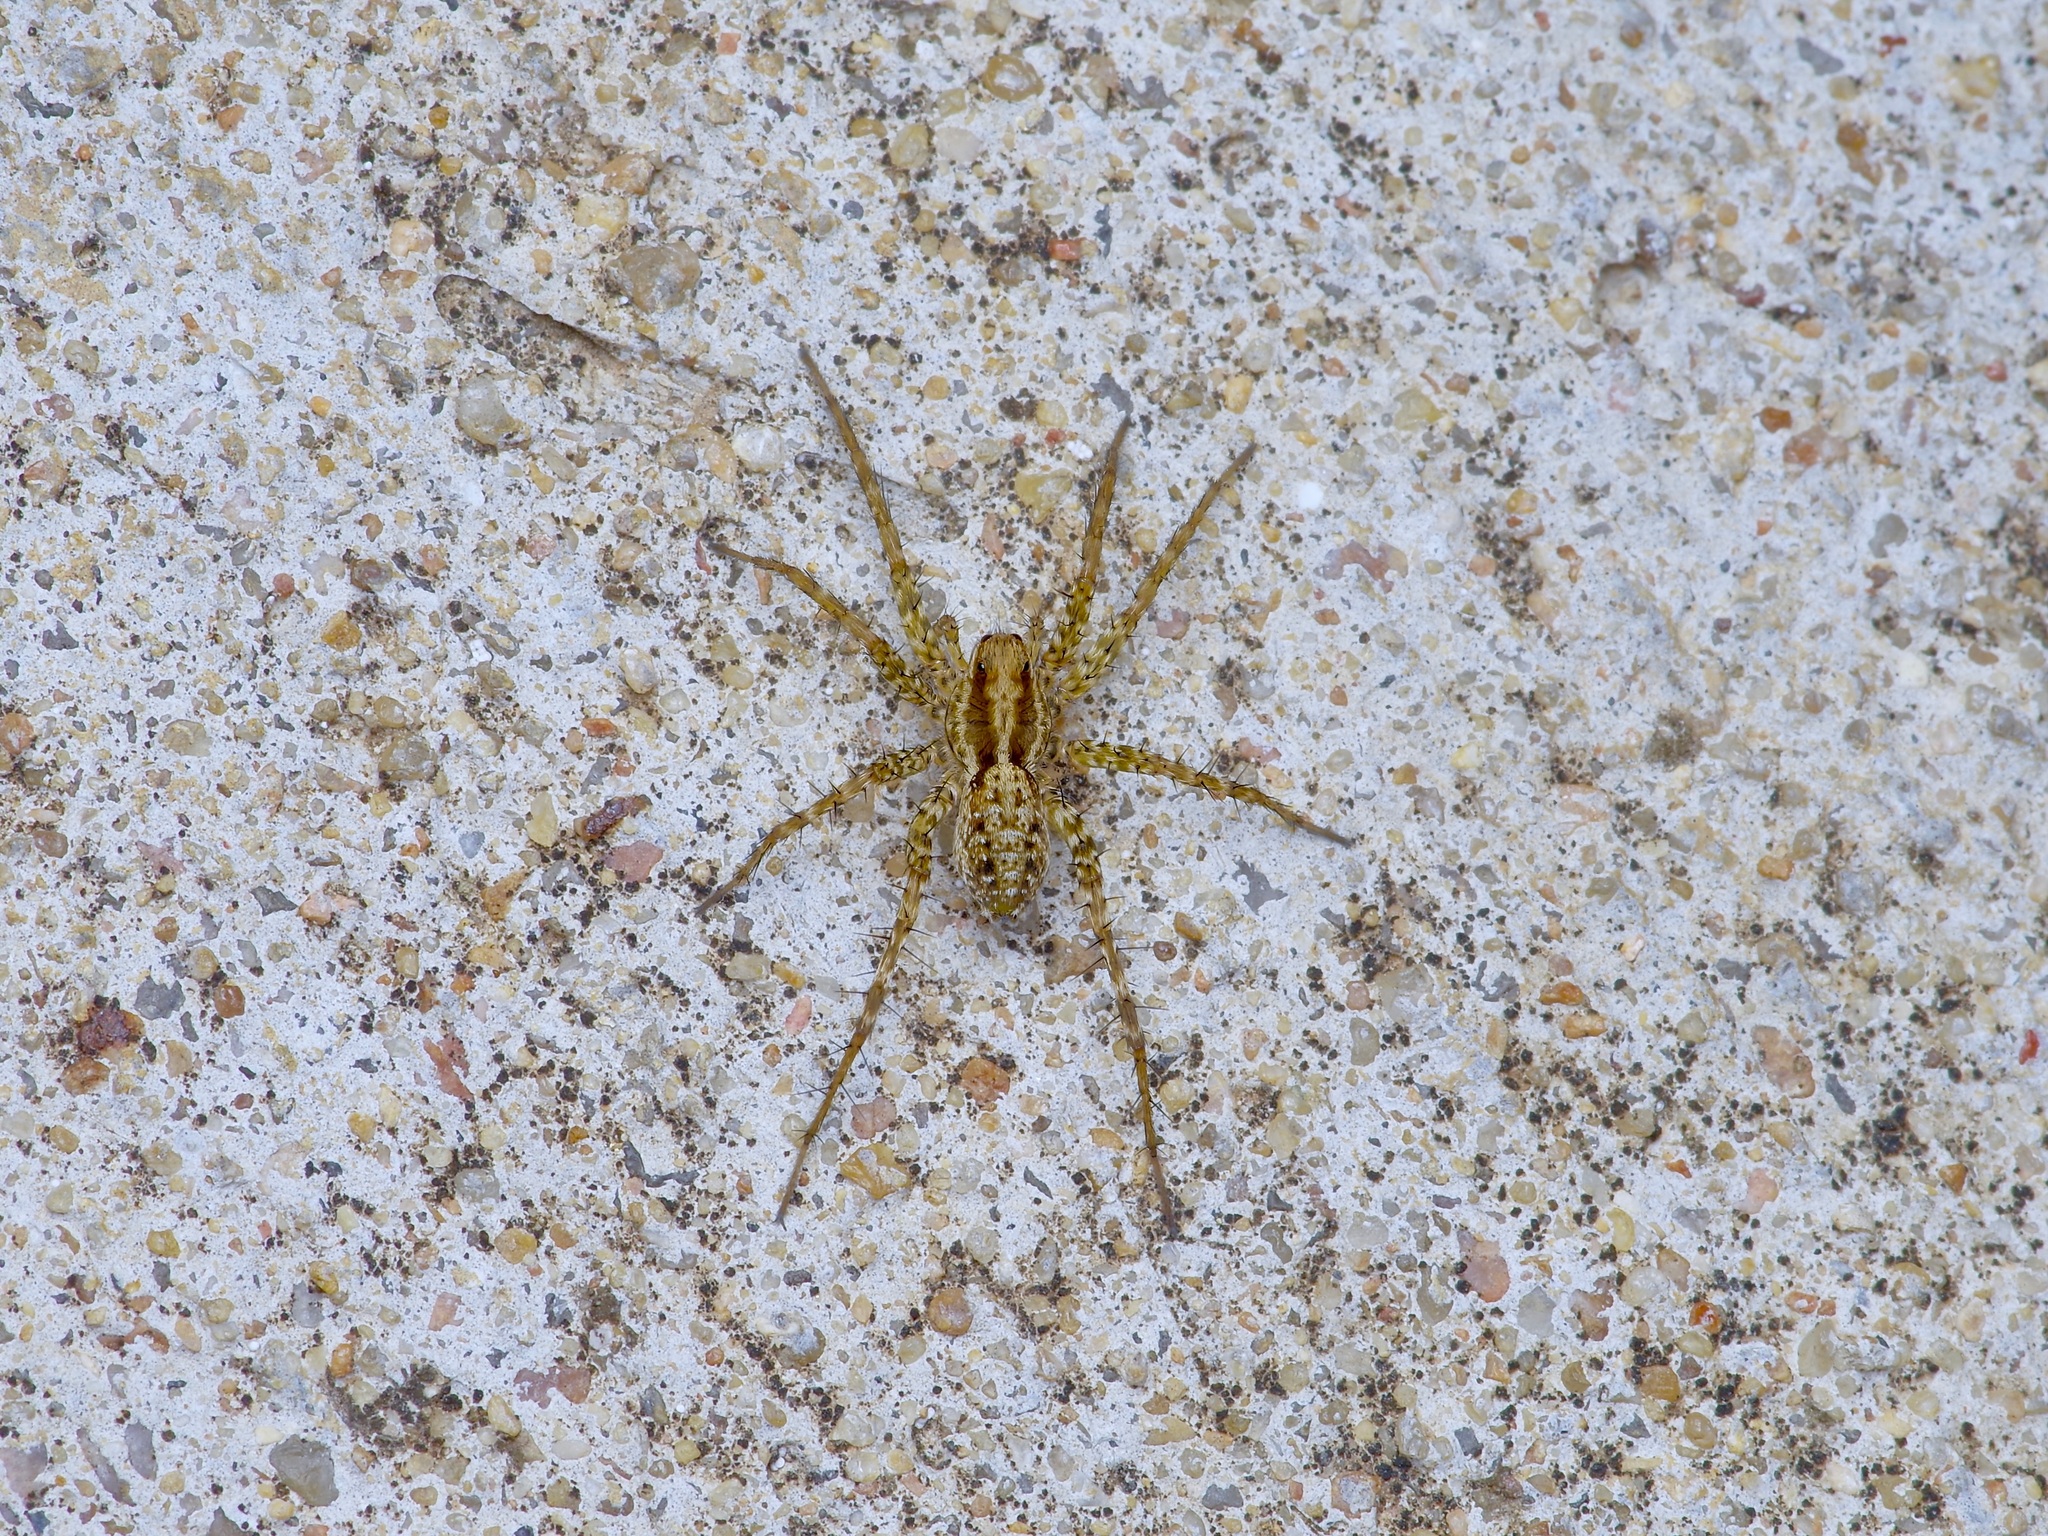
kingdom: Animalia
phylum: Arthropoda
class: Arachnida
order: Araneae
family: Lycosidae
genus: Pardosa
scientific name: Pardosa pauxilla
